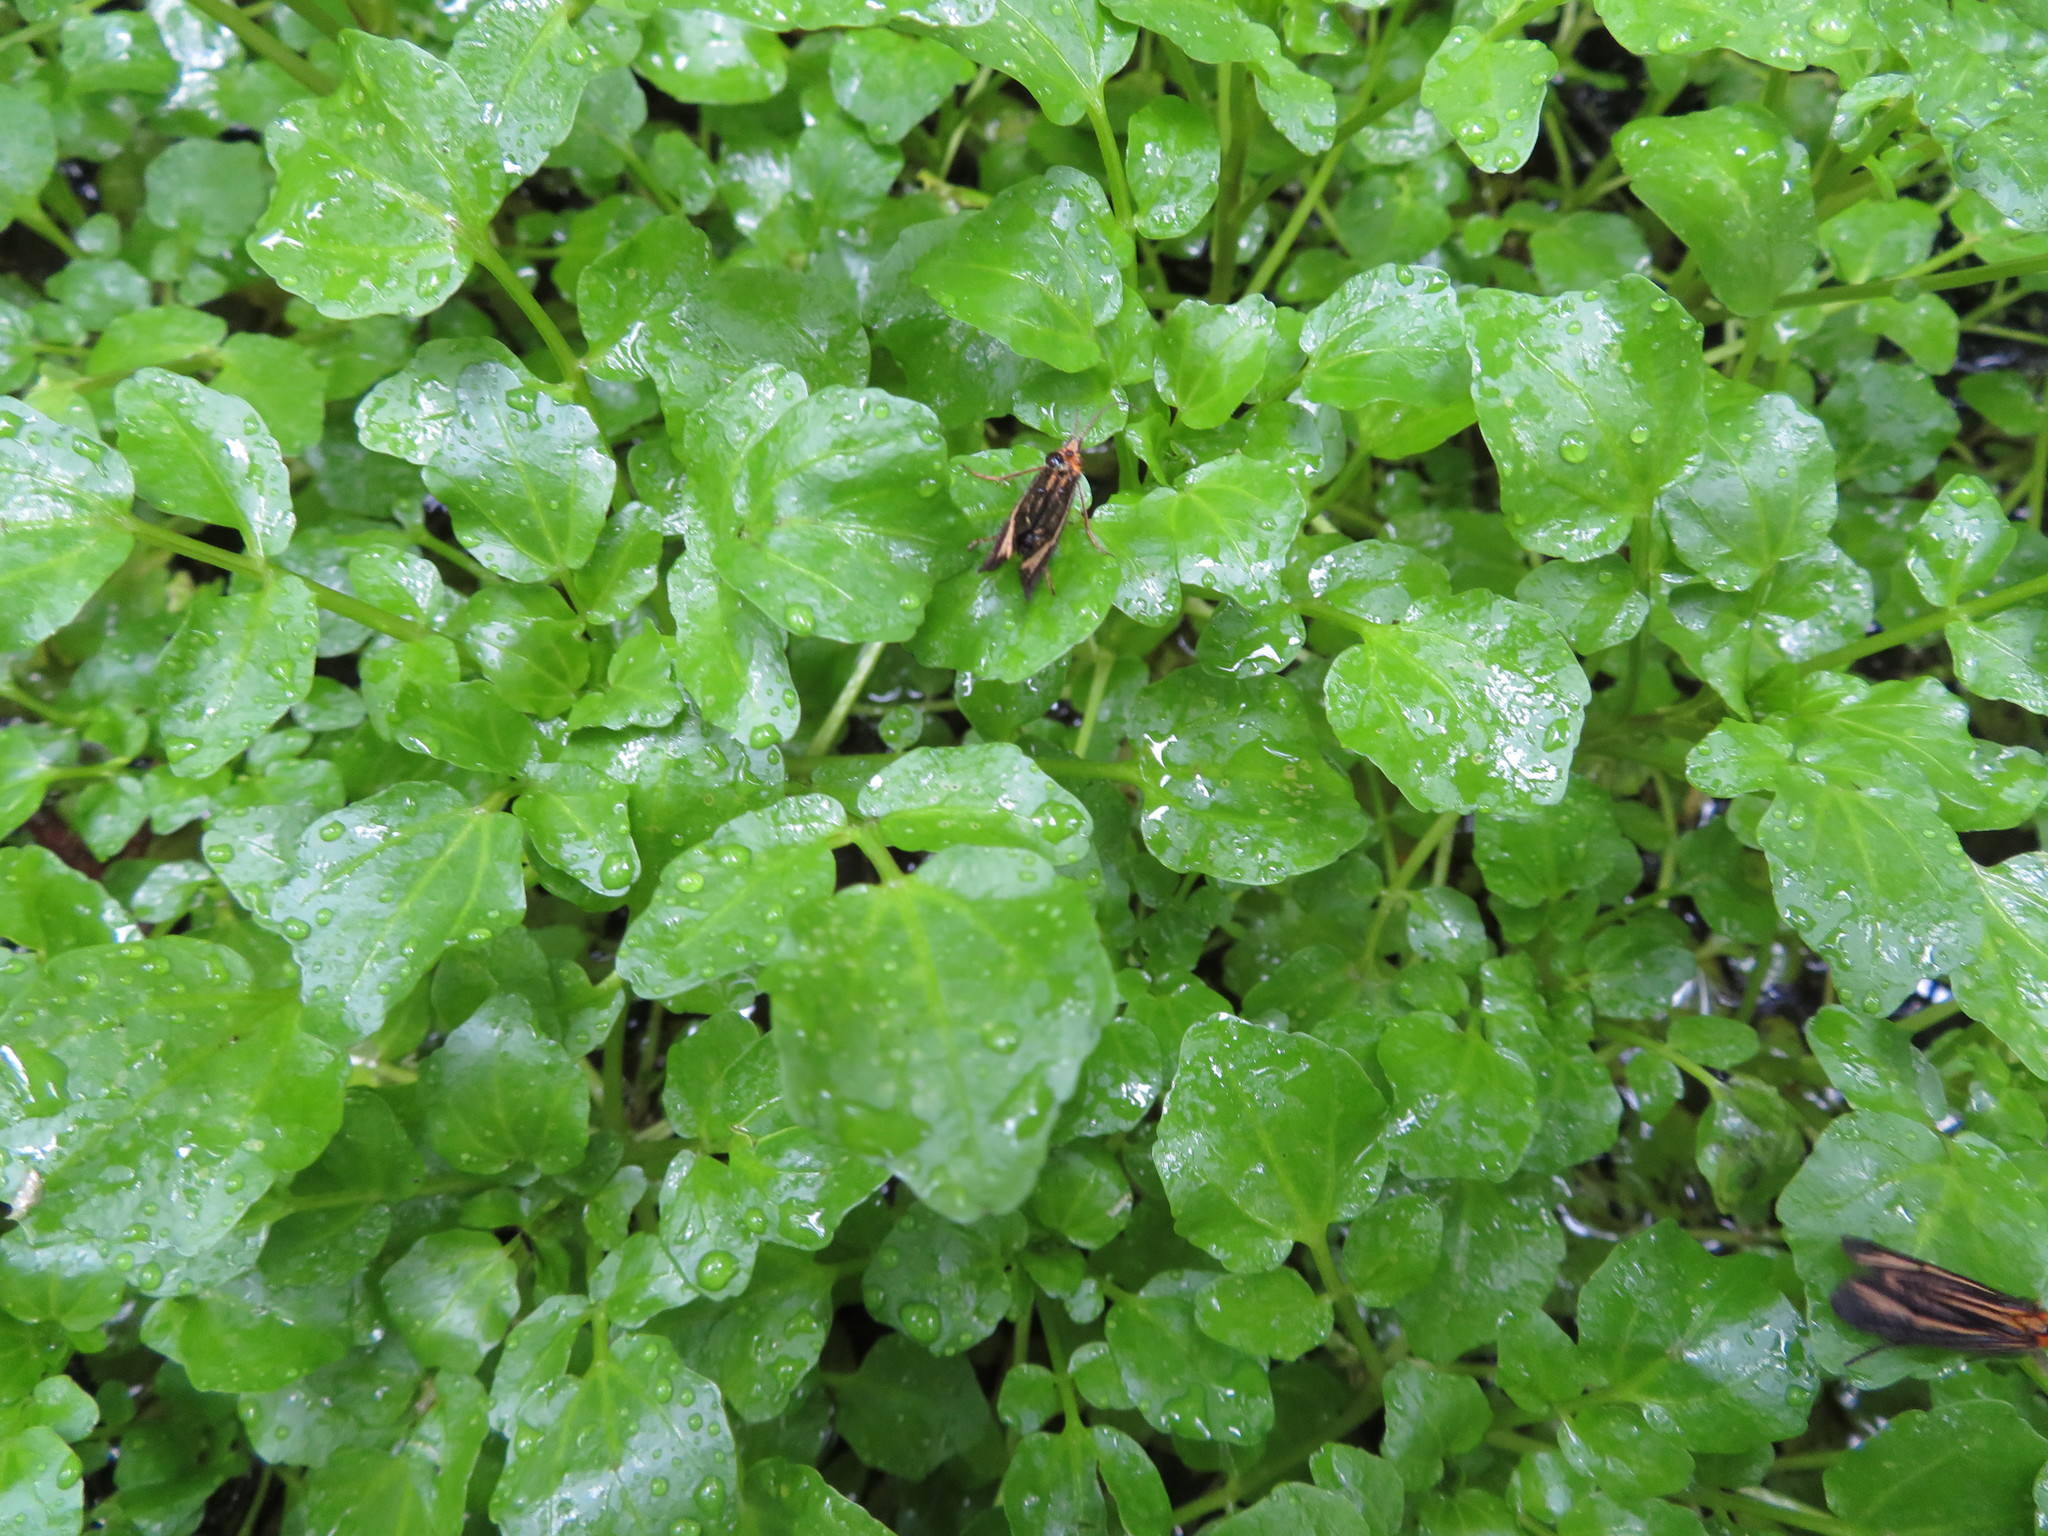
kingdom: Animalia
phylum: Arthropoda
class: Insecta
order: Trichoptera
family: Odontoceridae
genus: Nerophilus
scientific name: Nerophilus californicus
